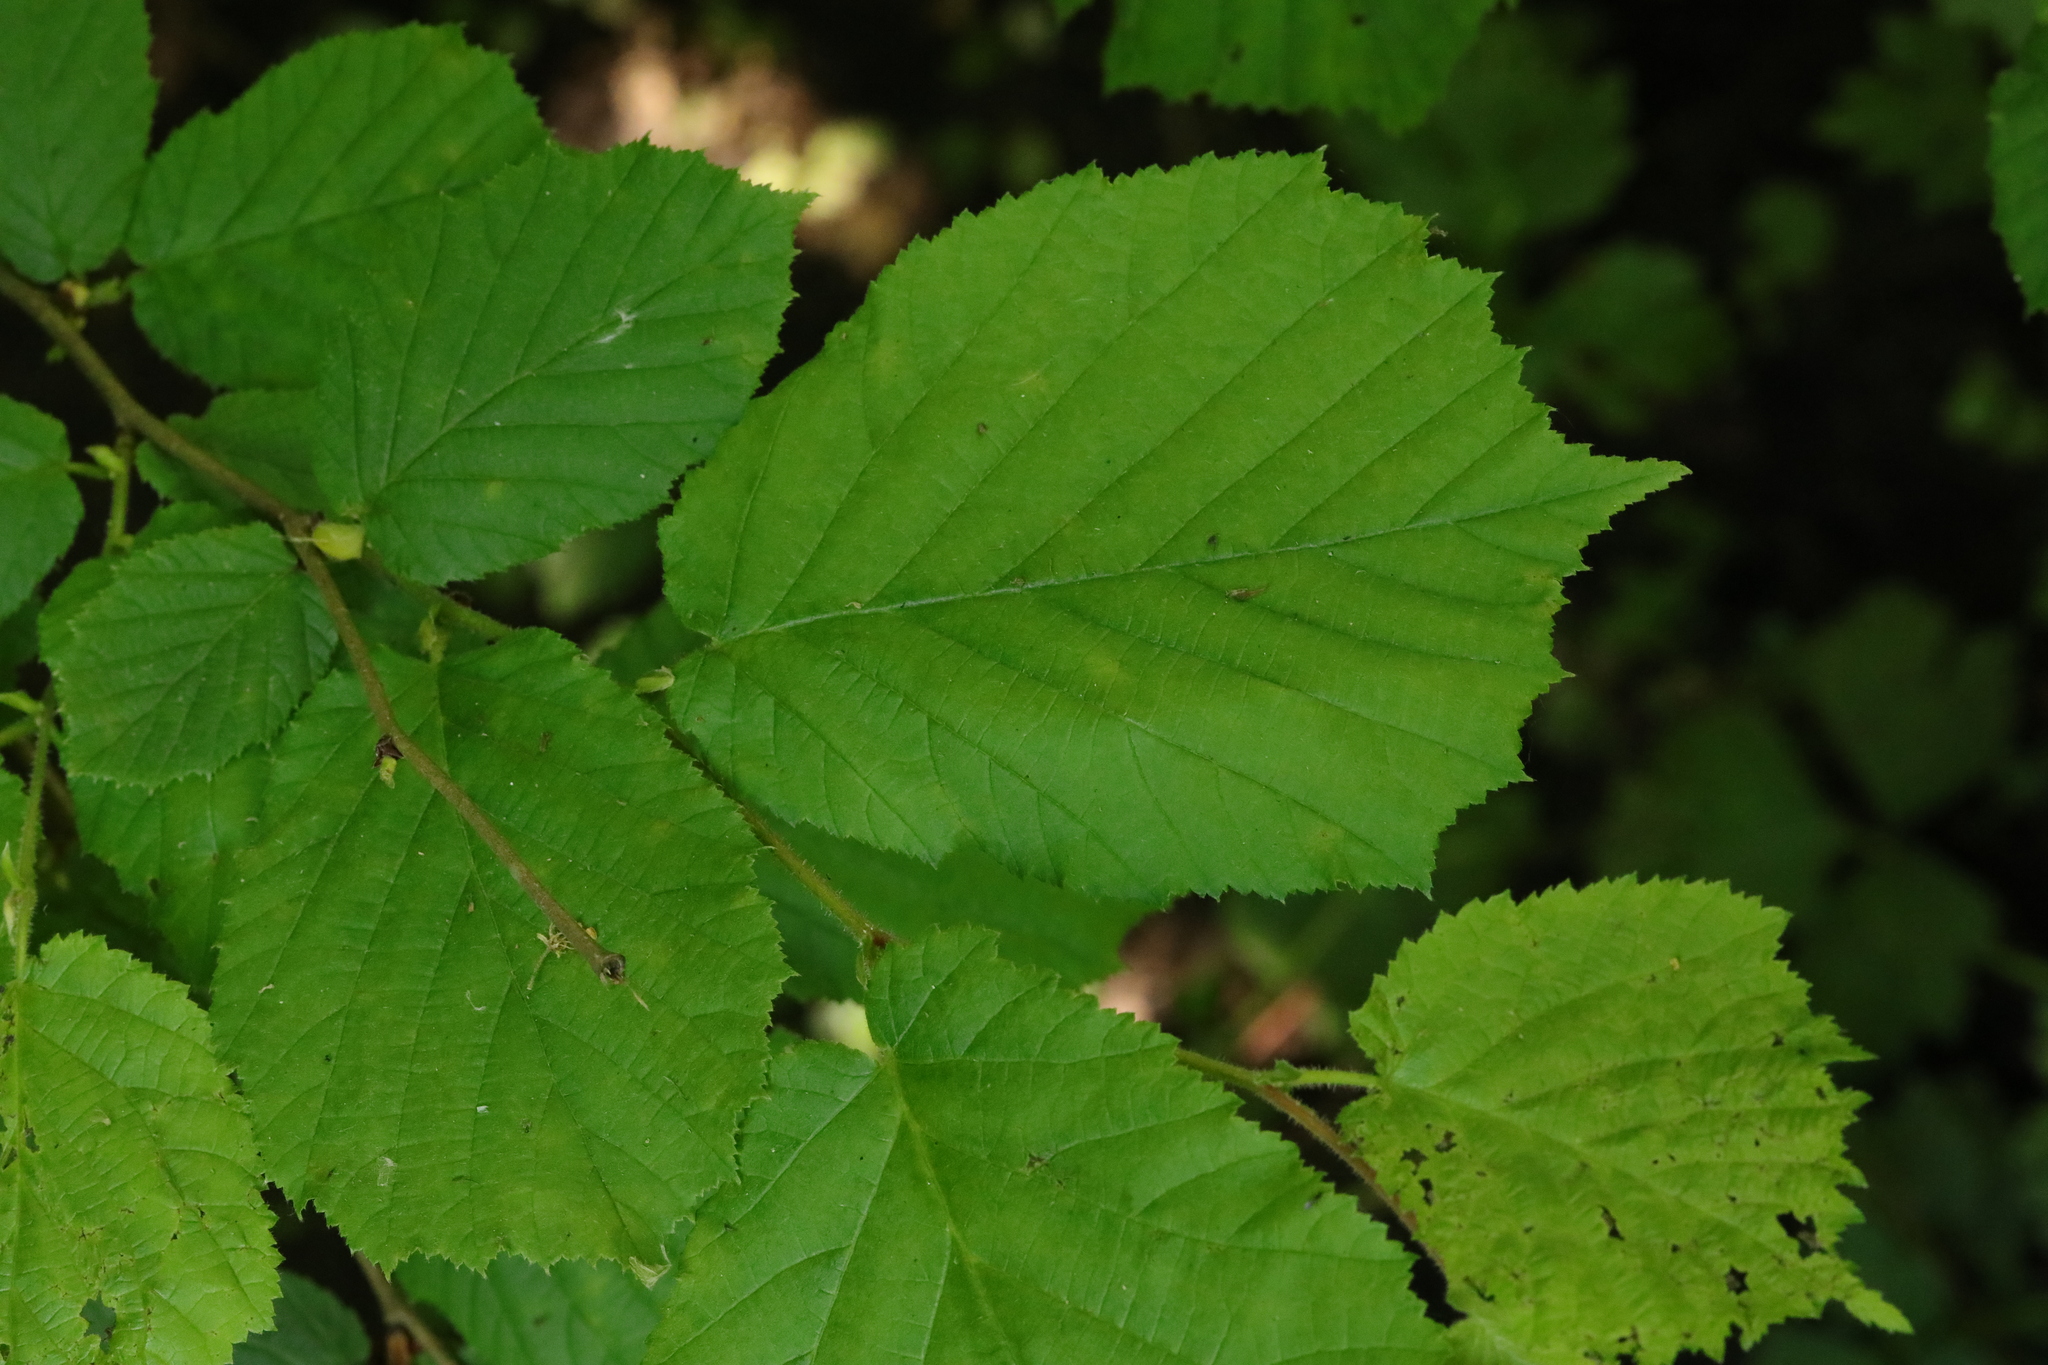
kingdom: Plantae
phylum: Tracheophyta
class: Magnoliopsida
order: Fagales
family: Betulaceae
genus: Corylus
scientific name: Corylus avellana
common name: European hazel
